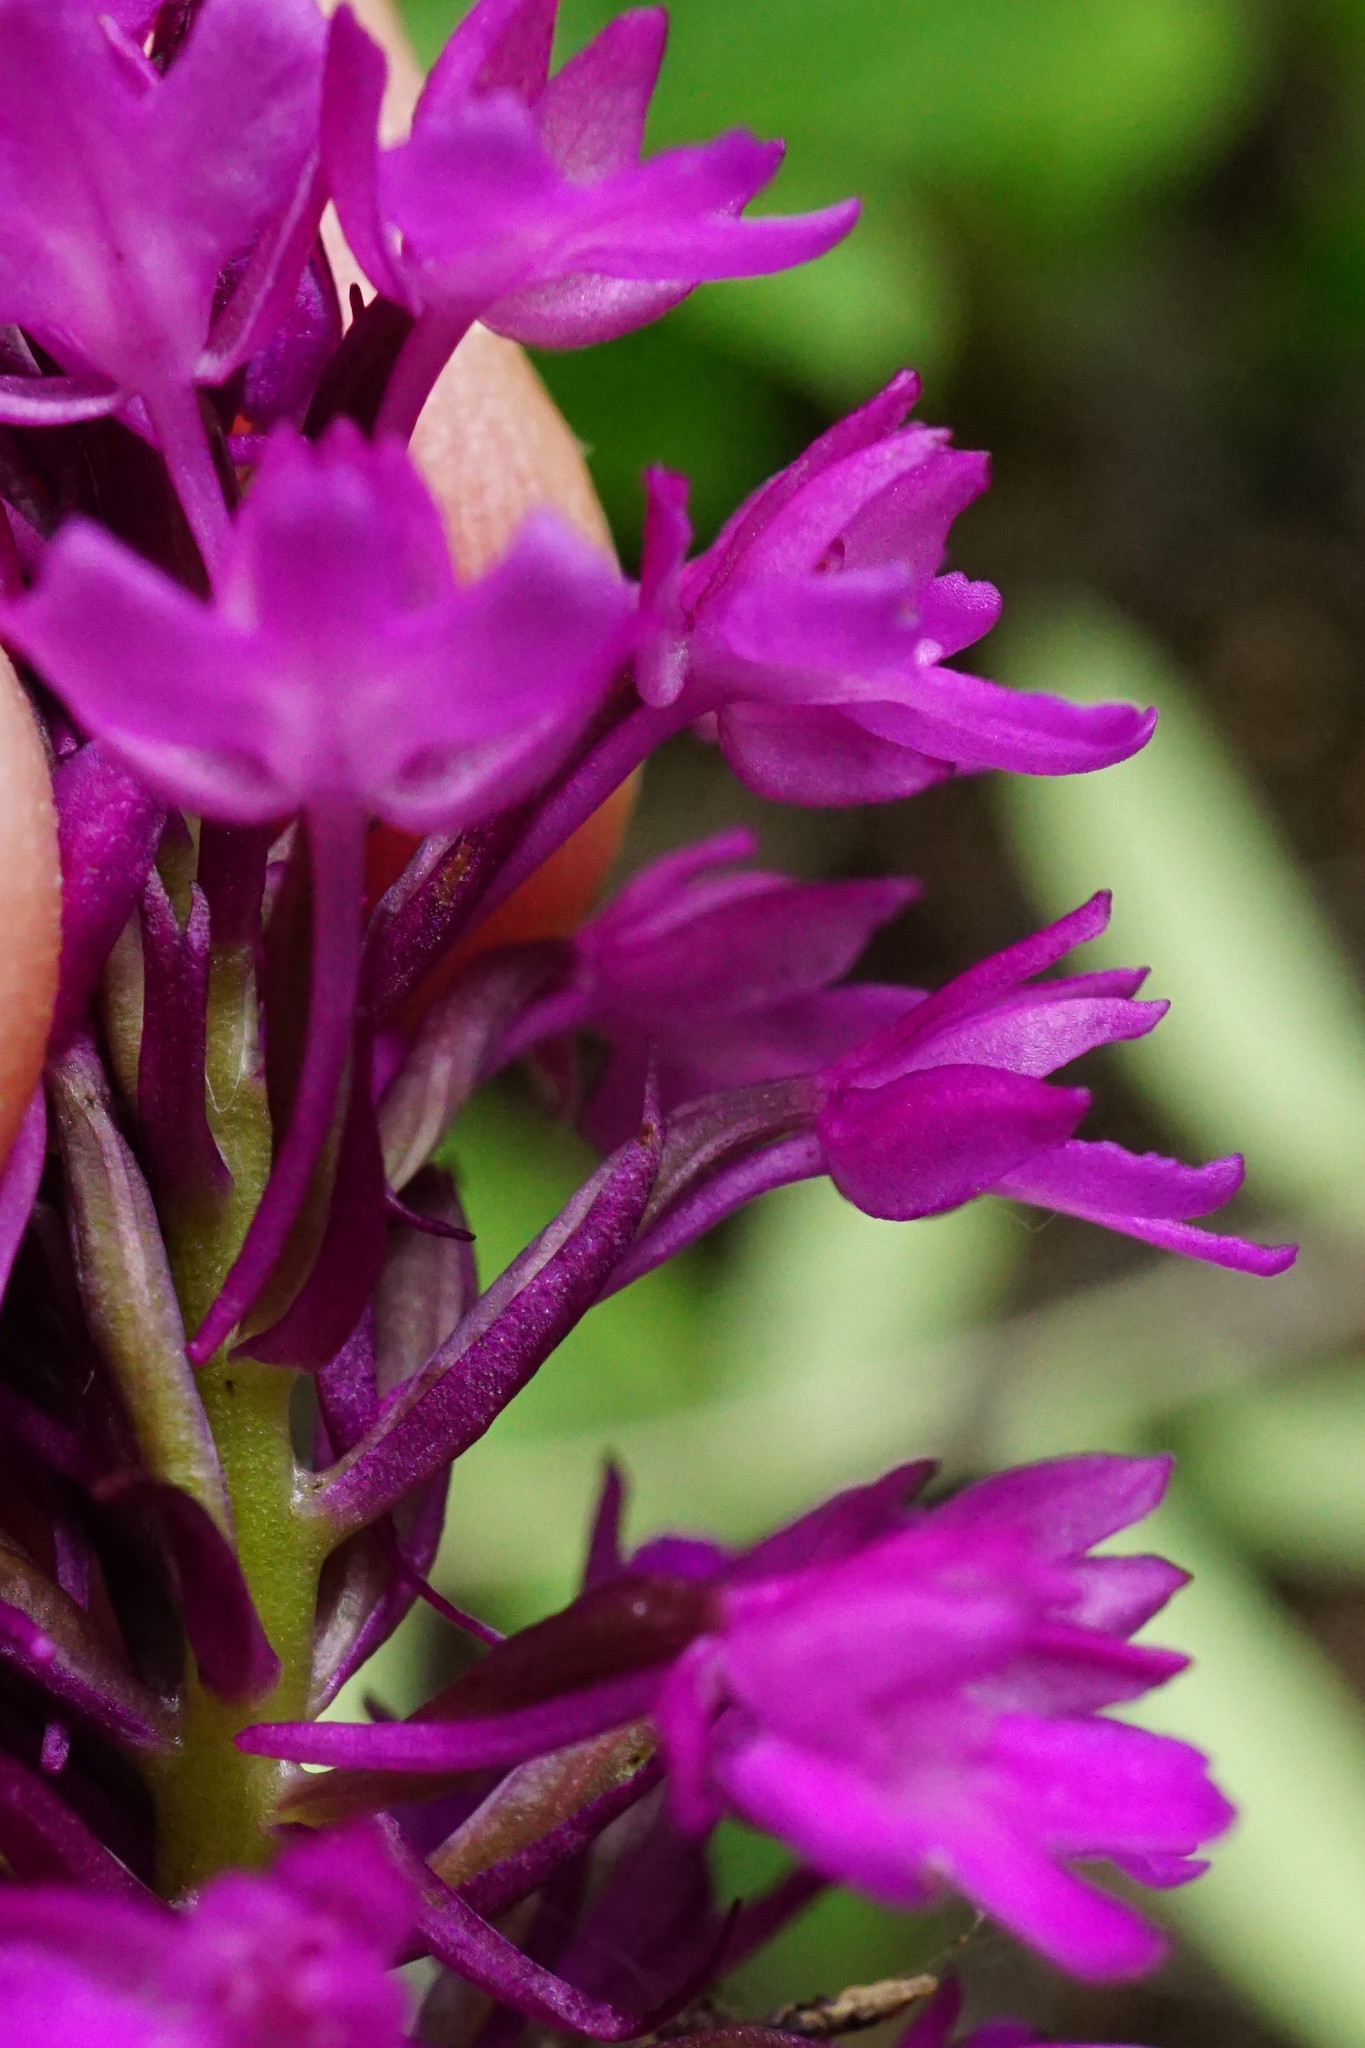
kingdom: Plantae
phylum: Tracheophyta
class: Liliopsida
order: Asparagales
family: Orchidaceae
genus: Anacamptis
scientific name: Anacamptis pyramidalis
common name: Pyramidal orchid
